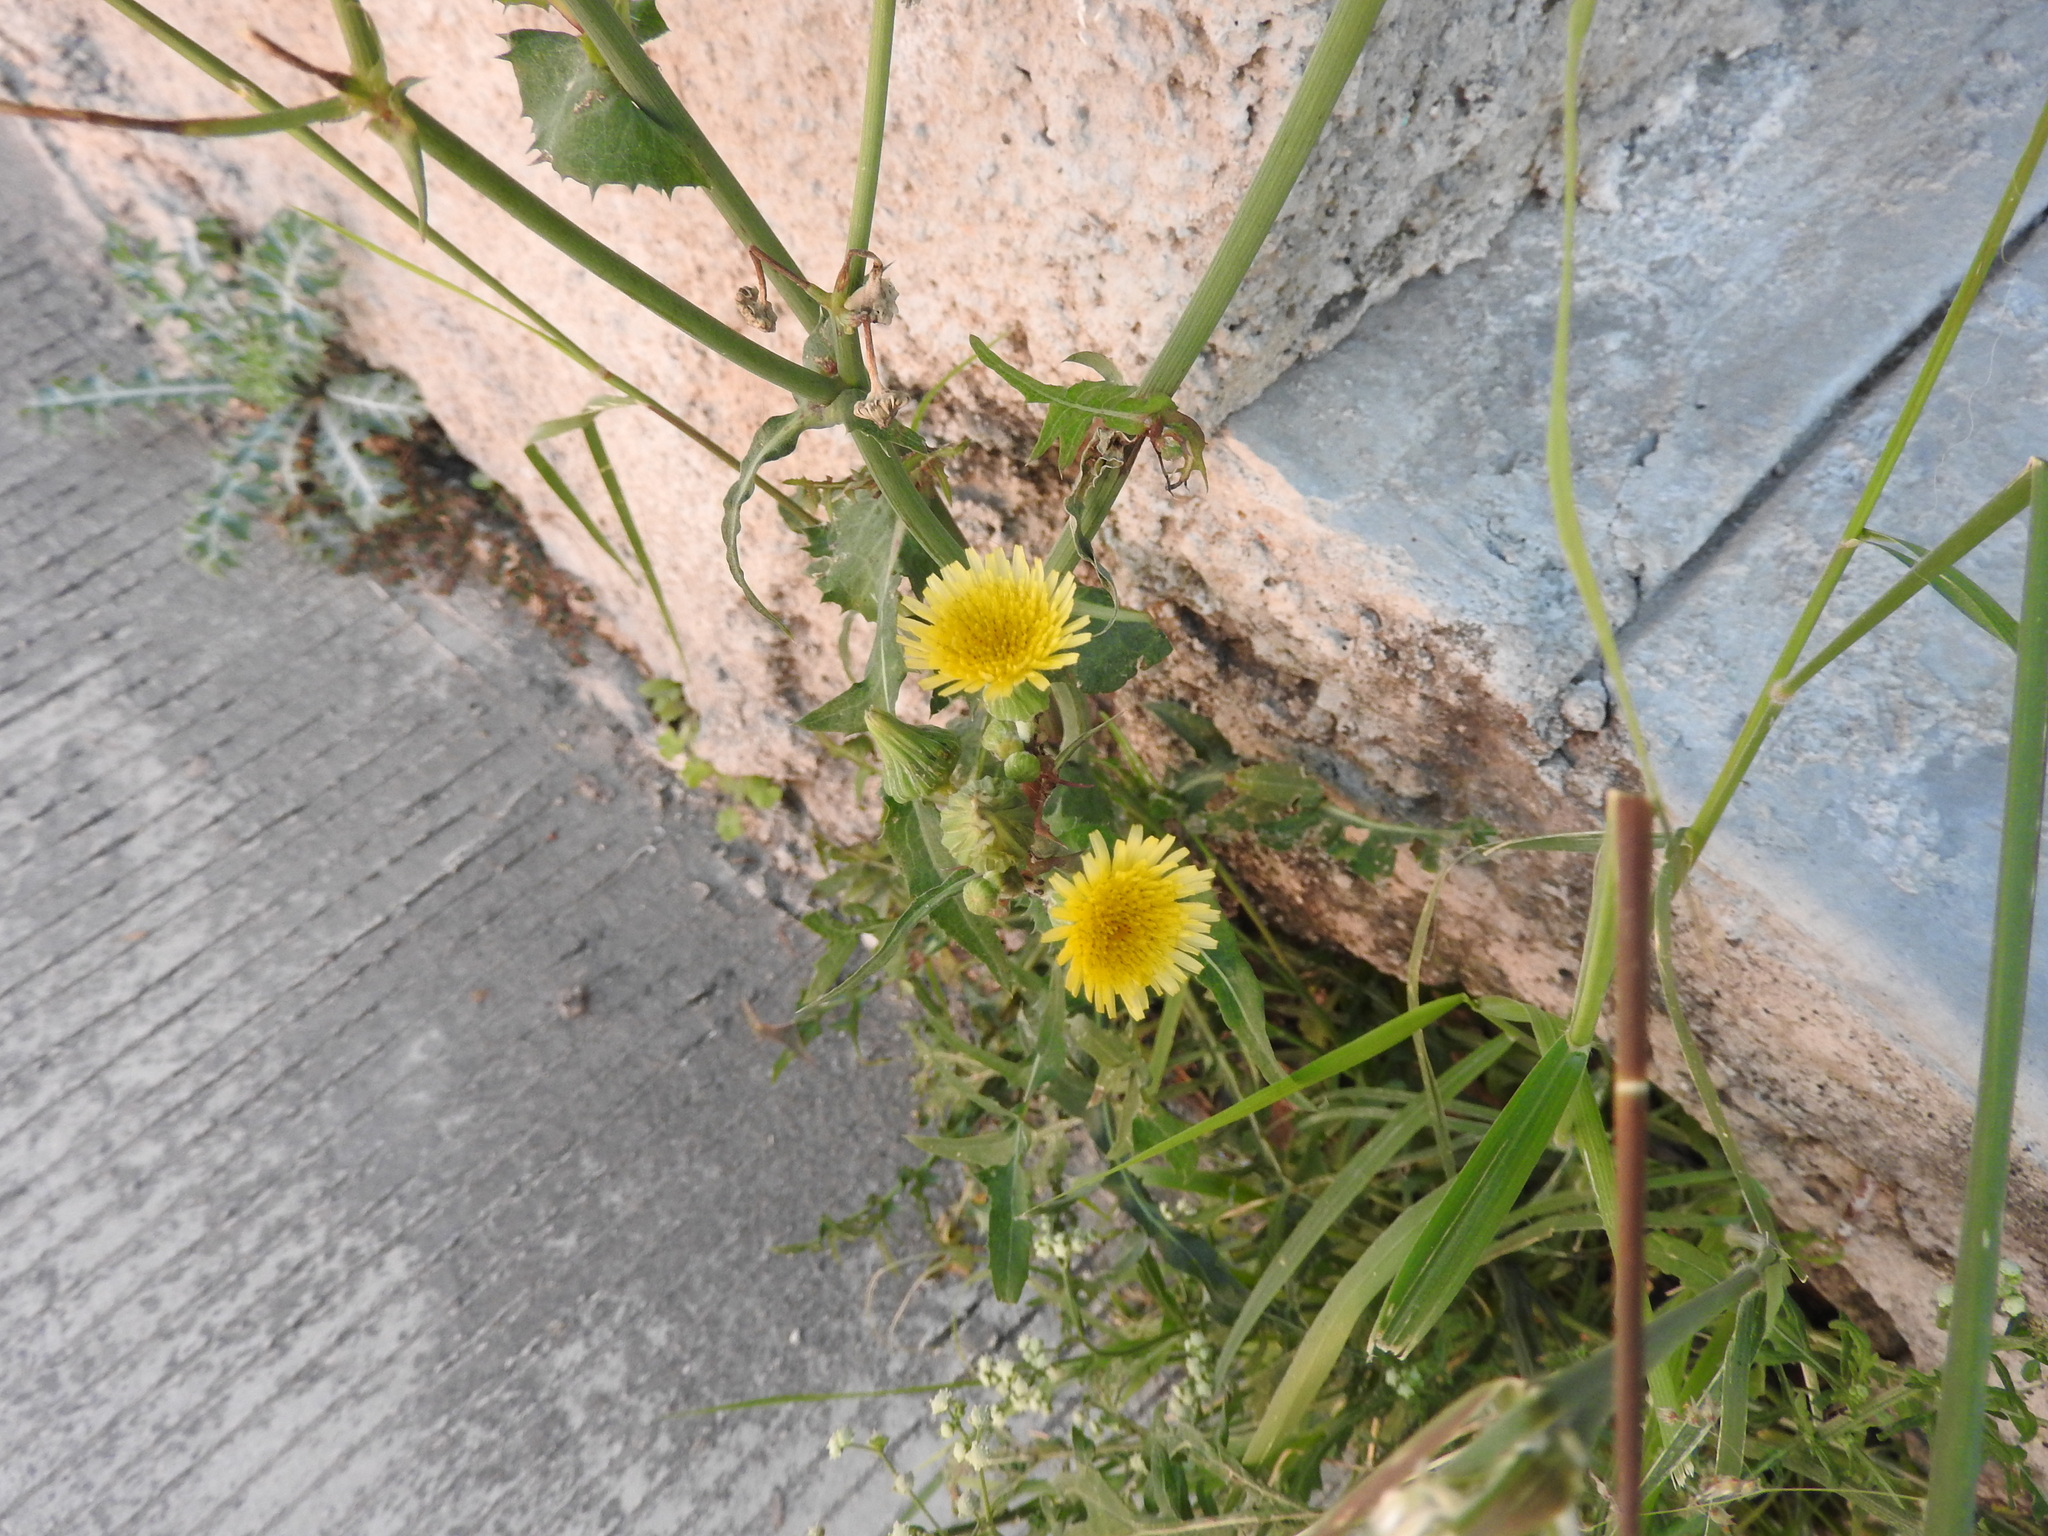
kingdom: Plantae
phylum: Tracheophyta
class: Magnoliopsida
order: Asterales
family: Asteraceae
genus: Sonchus
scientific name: Sonchus oleraceus
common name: Common sowthistle
